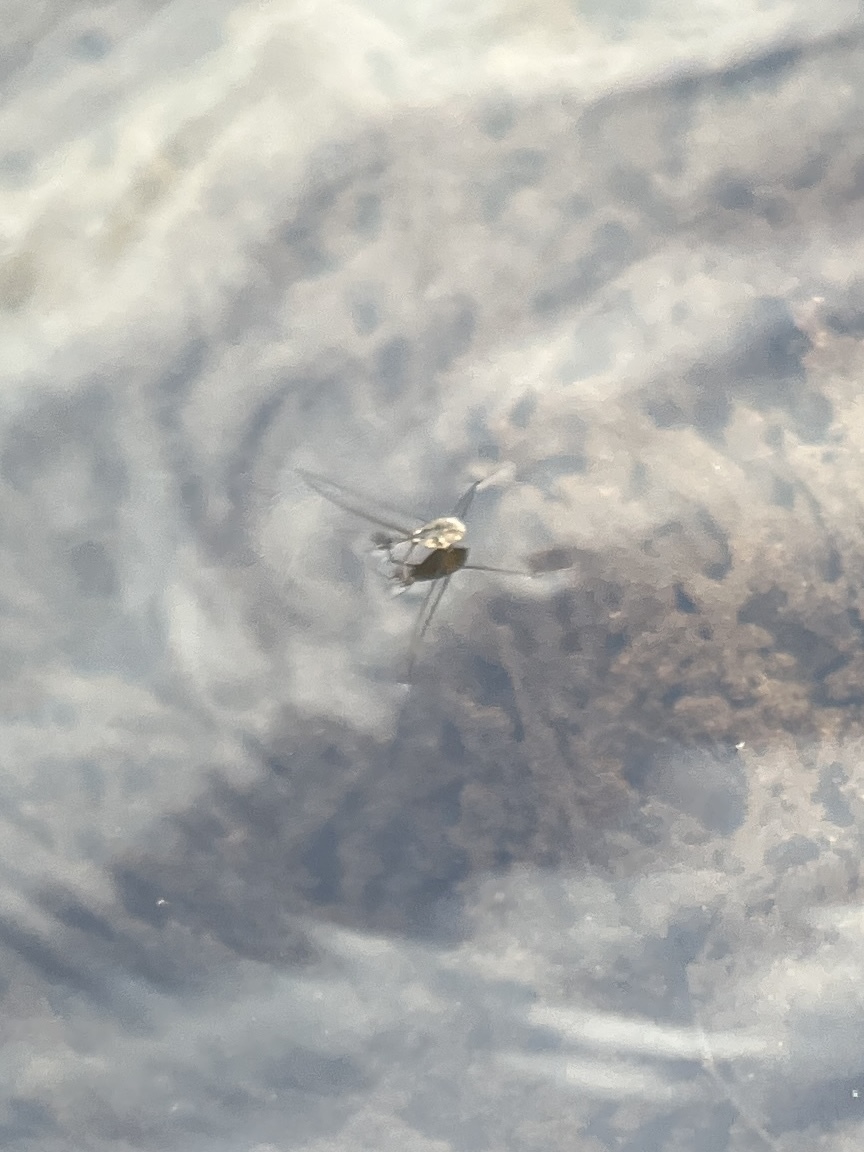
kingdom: Animalia
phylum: Arthropoda
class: Insecta
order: Hemiptera
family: Gerridae
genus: Metrobates
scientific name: Metrobates
